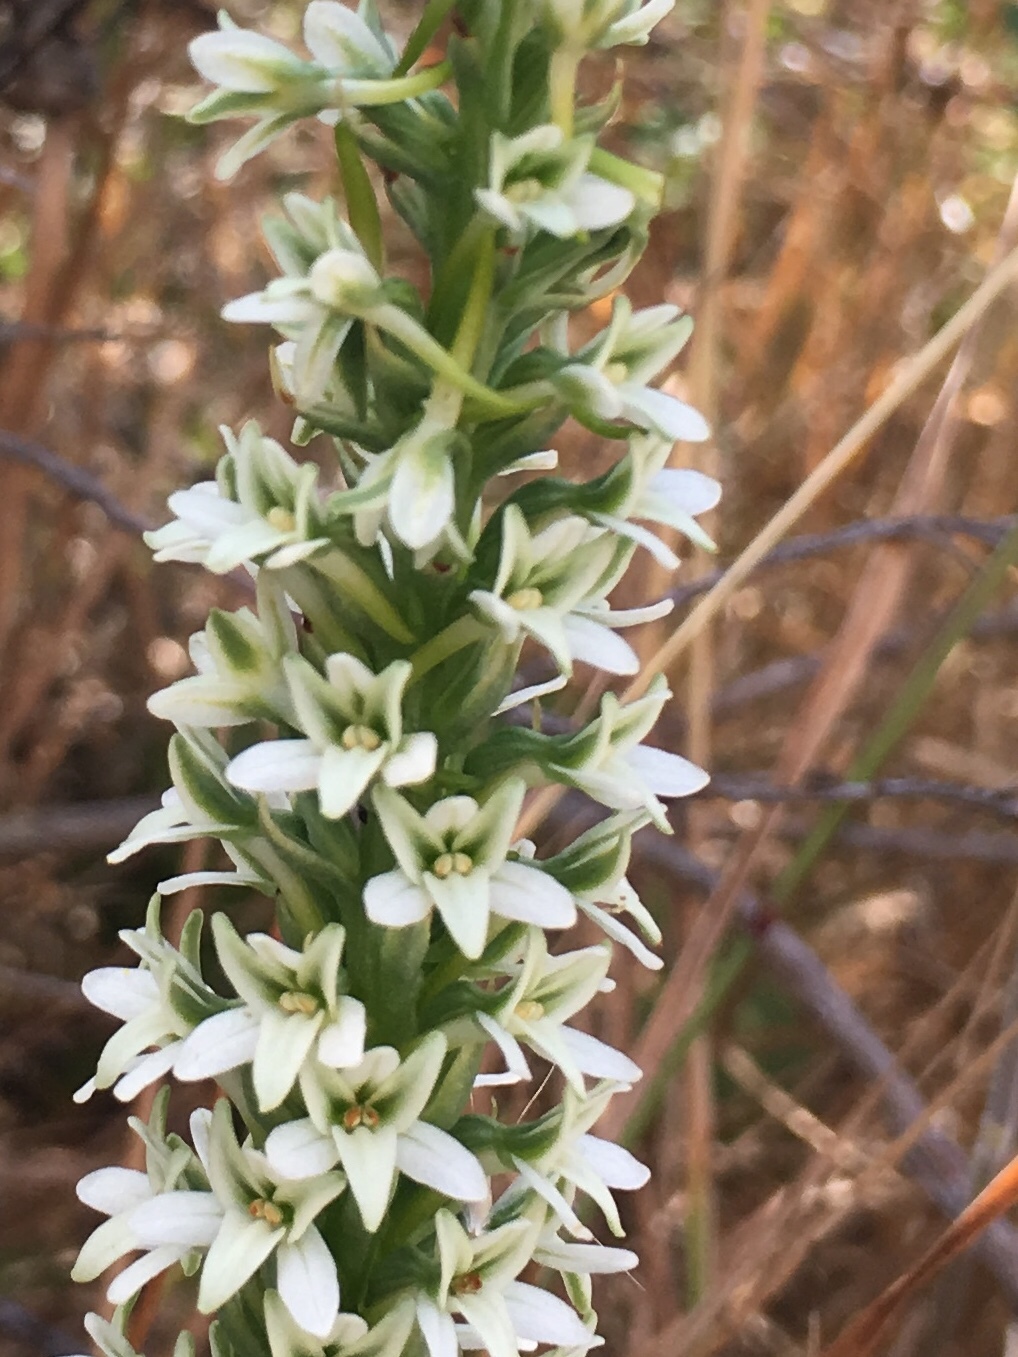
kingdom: Plantae
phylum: Tracheophyta
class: Liliopsida
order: Asparagales
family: Orchidaceae
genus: Platanthera
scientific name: Platanthera elegans
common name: Coast piperia
